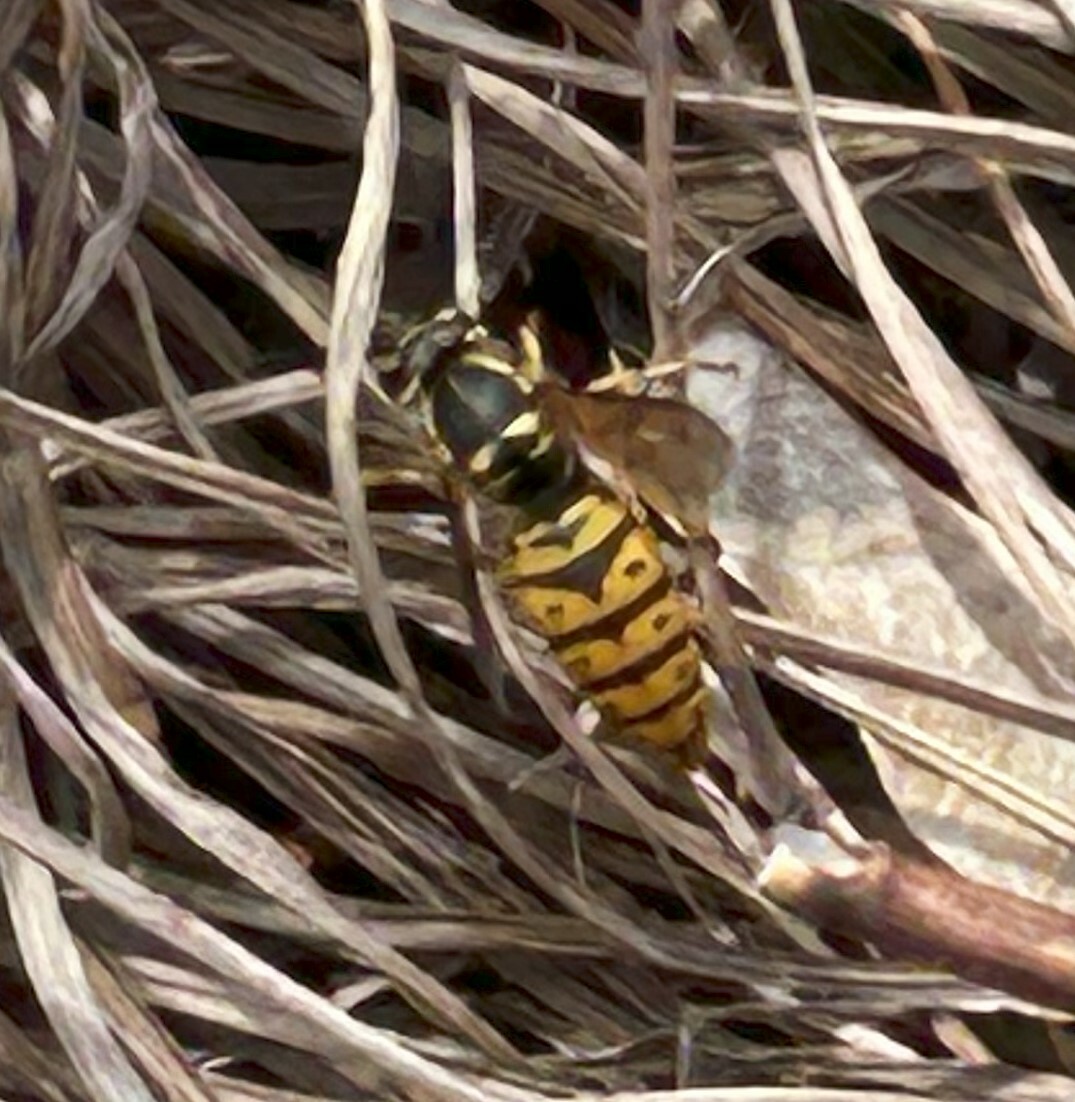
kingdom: Animalia
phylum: Arthropoda
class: Insecta
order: Hymenoptera
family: Vespidae
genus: Vespula
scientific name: Vespula maculifrons
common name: Eastern yellowjacket
